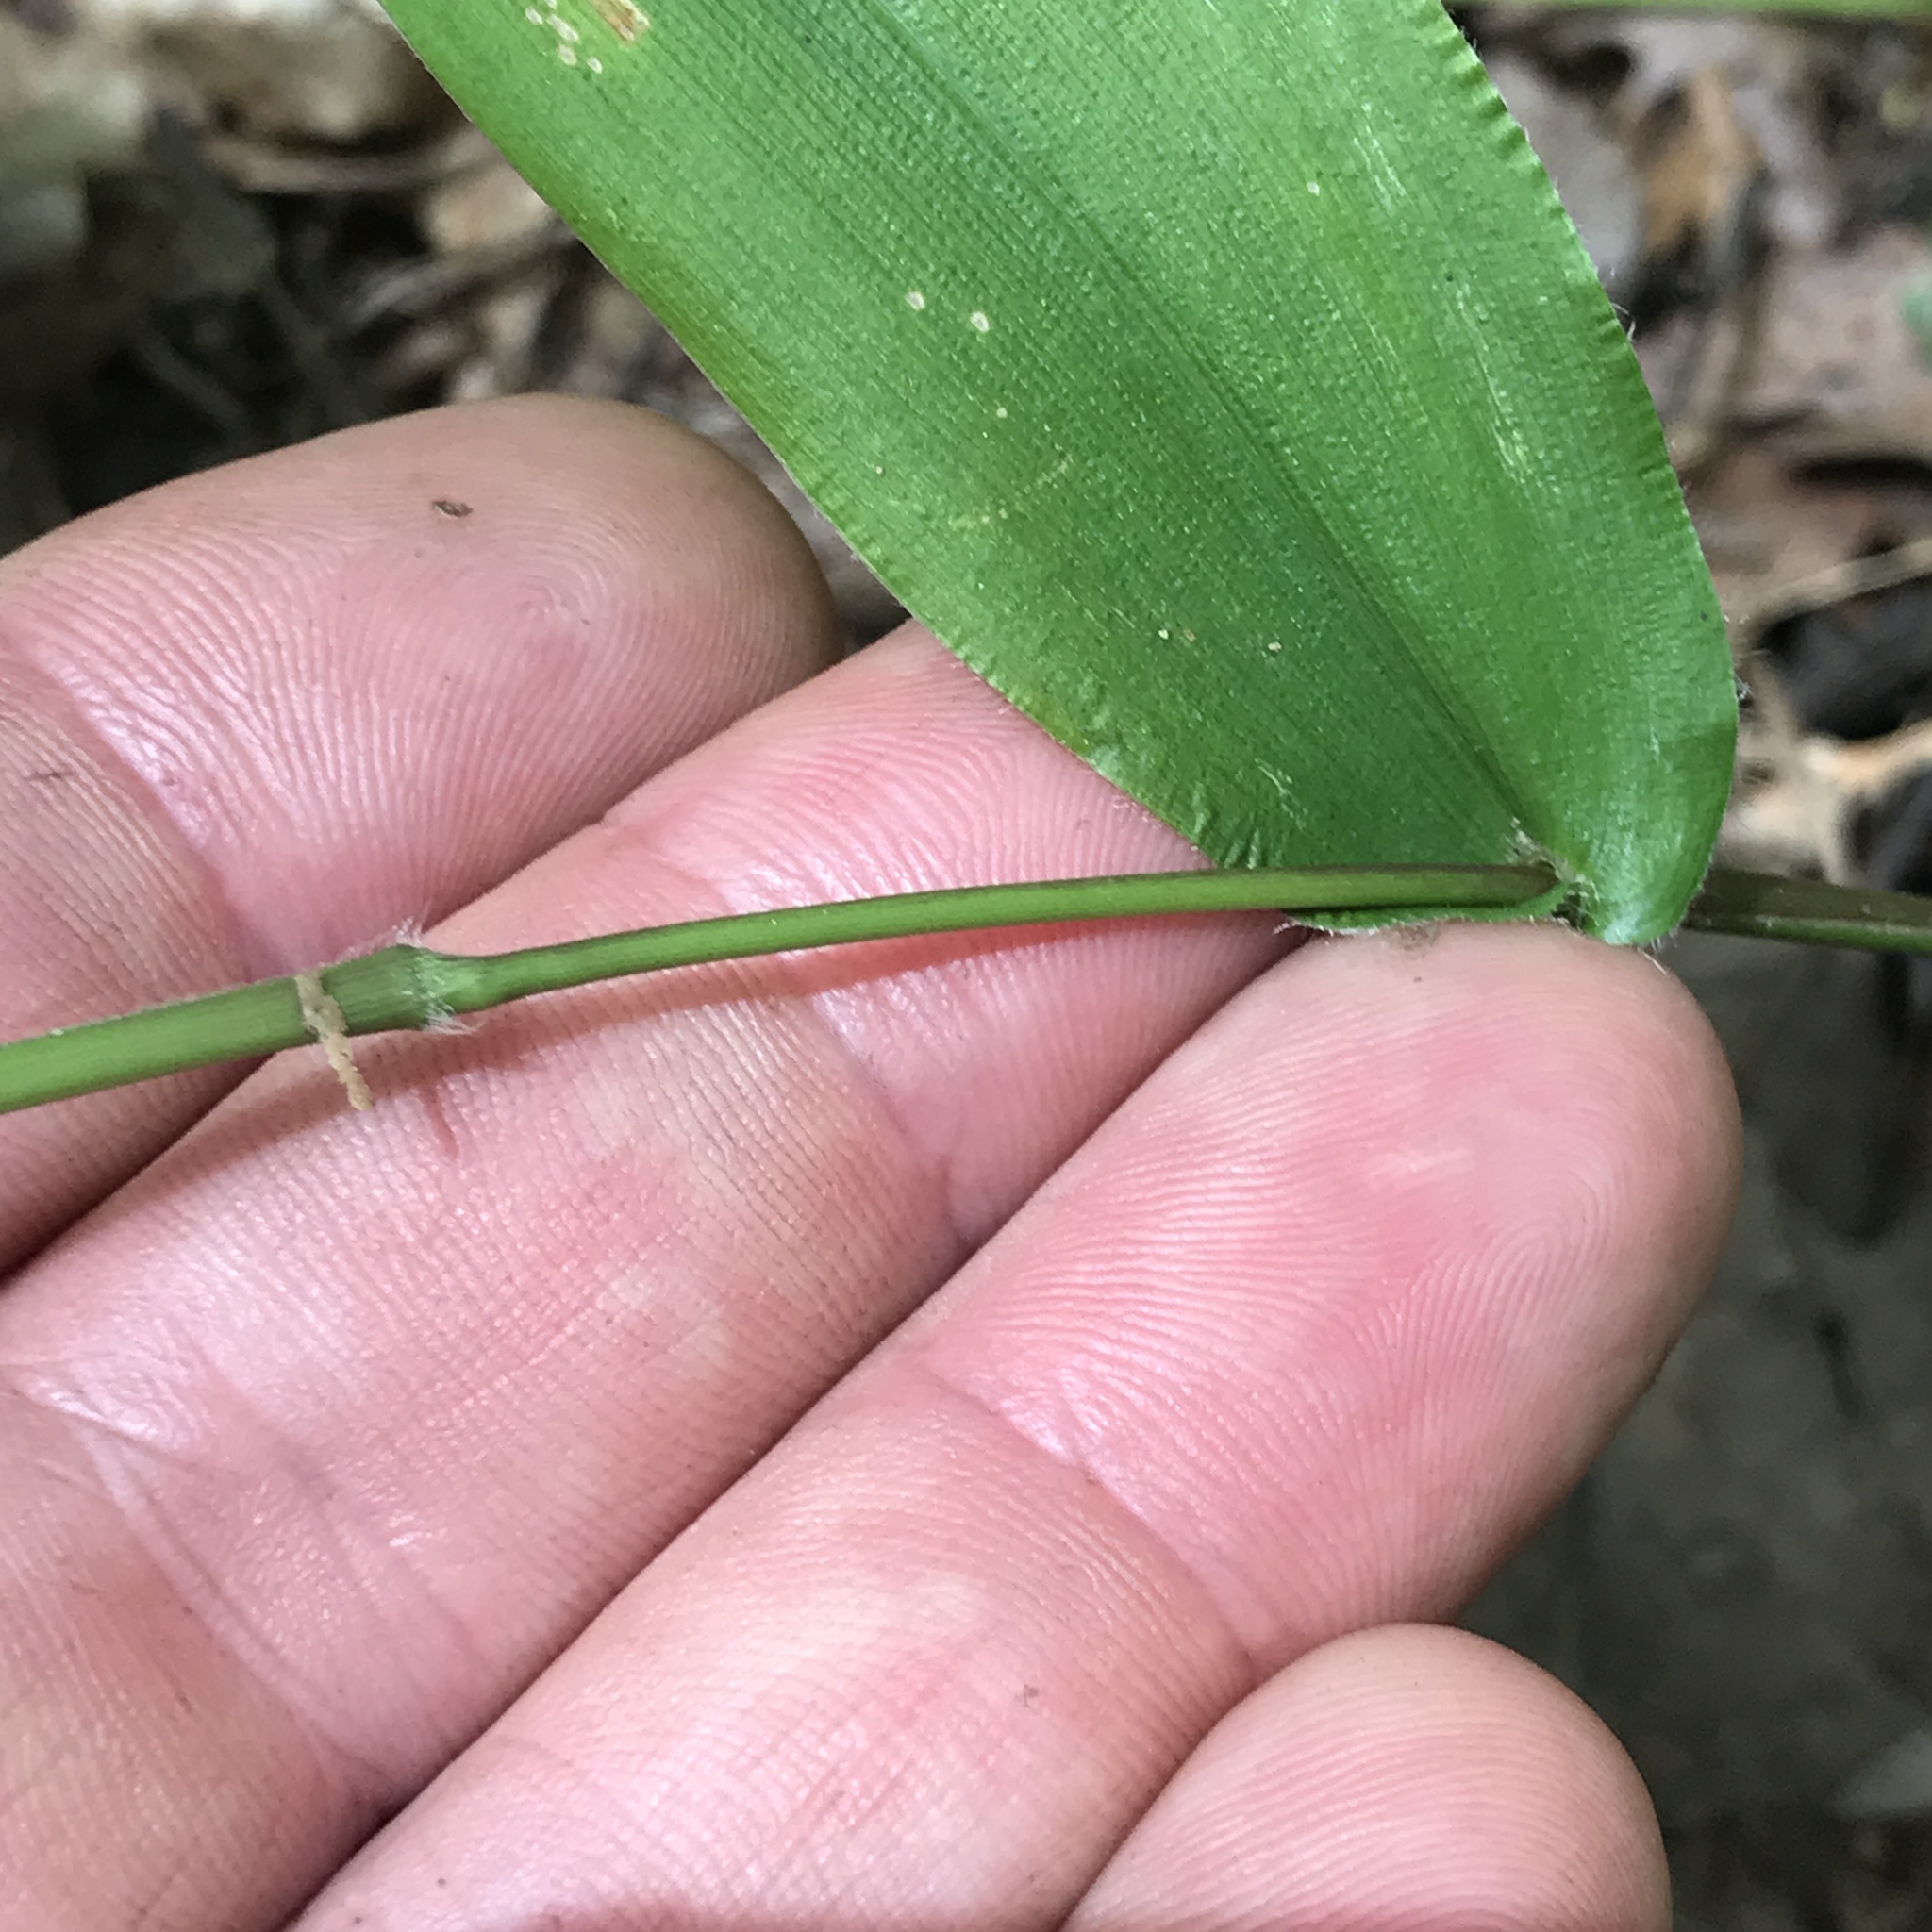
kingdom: Plantae
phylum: Tracheophyta
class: Liliopsida
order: Poales
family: Poaceae
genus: Dichanthelium
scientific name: Dichanthelium latifolium
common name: Broad-leaved panicgrass
